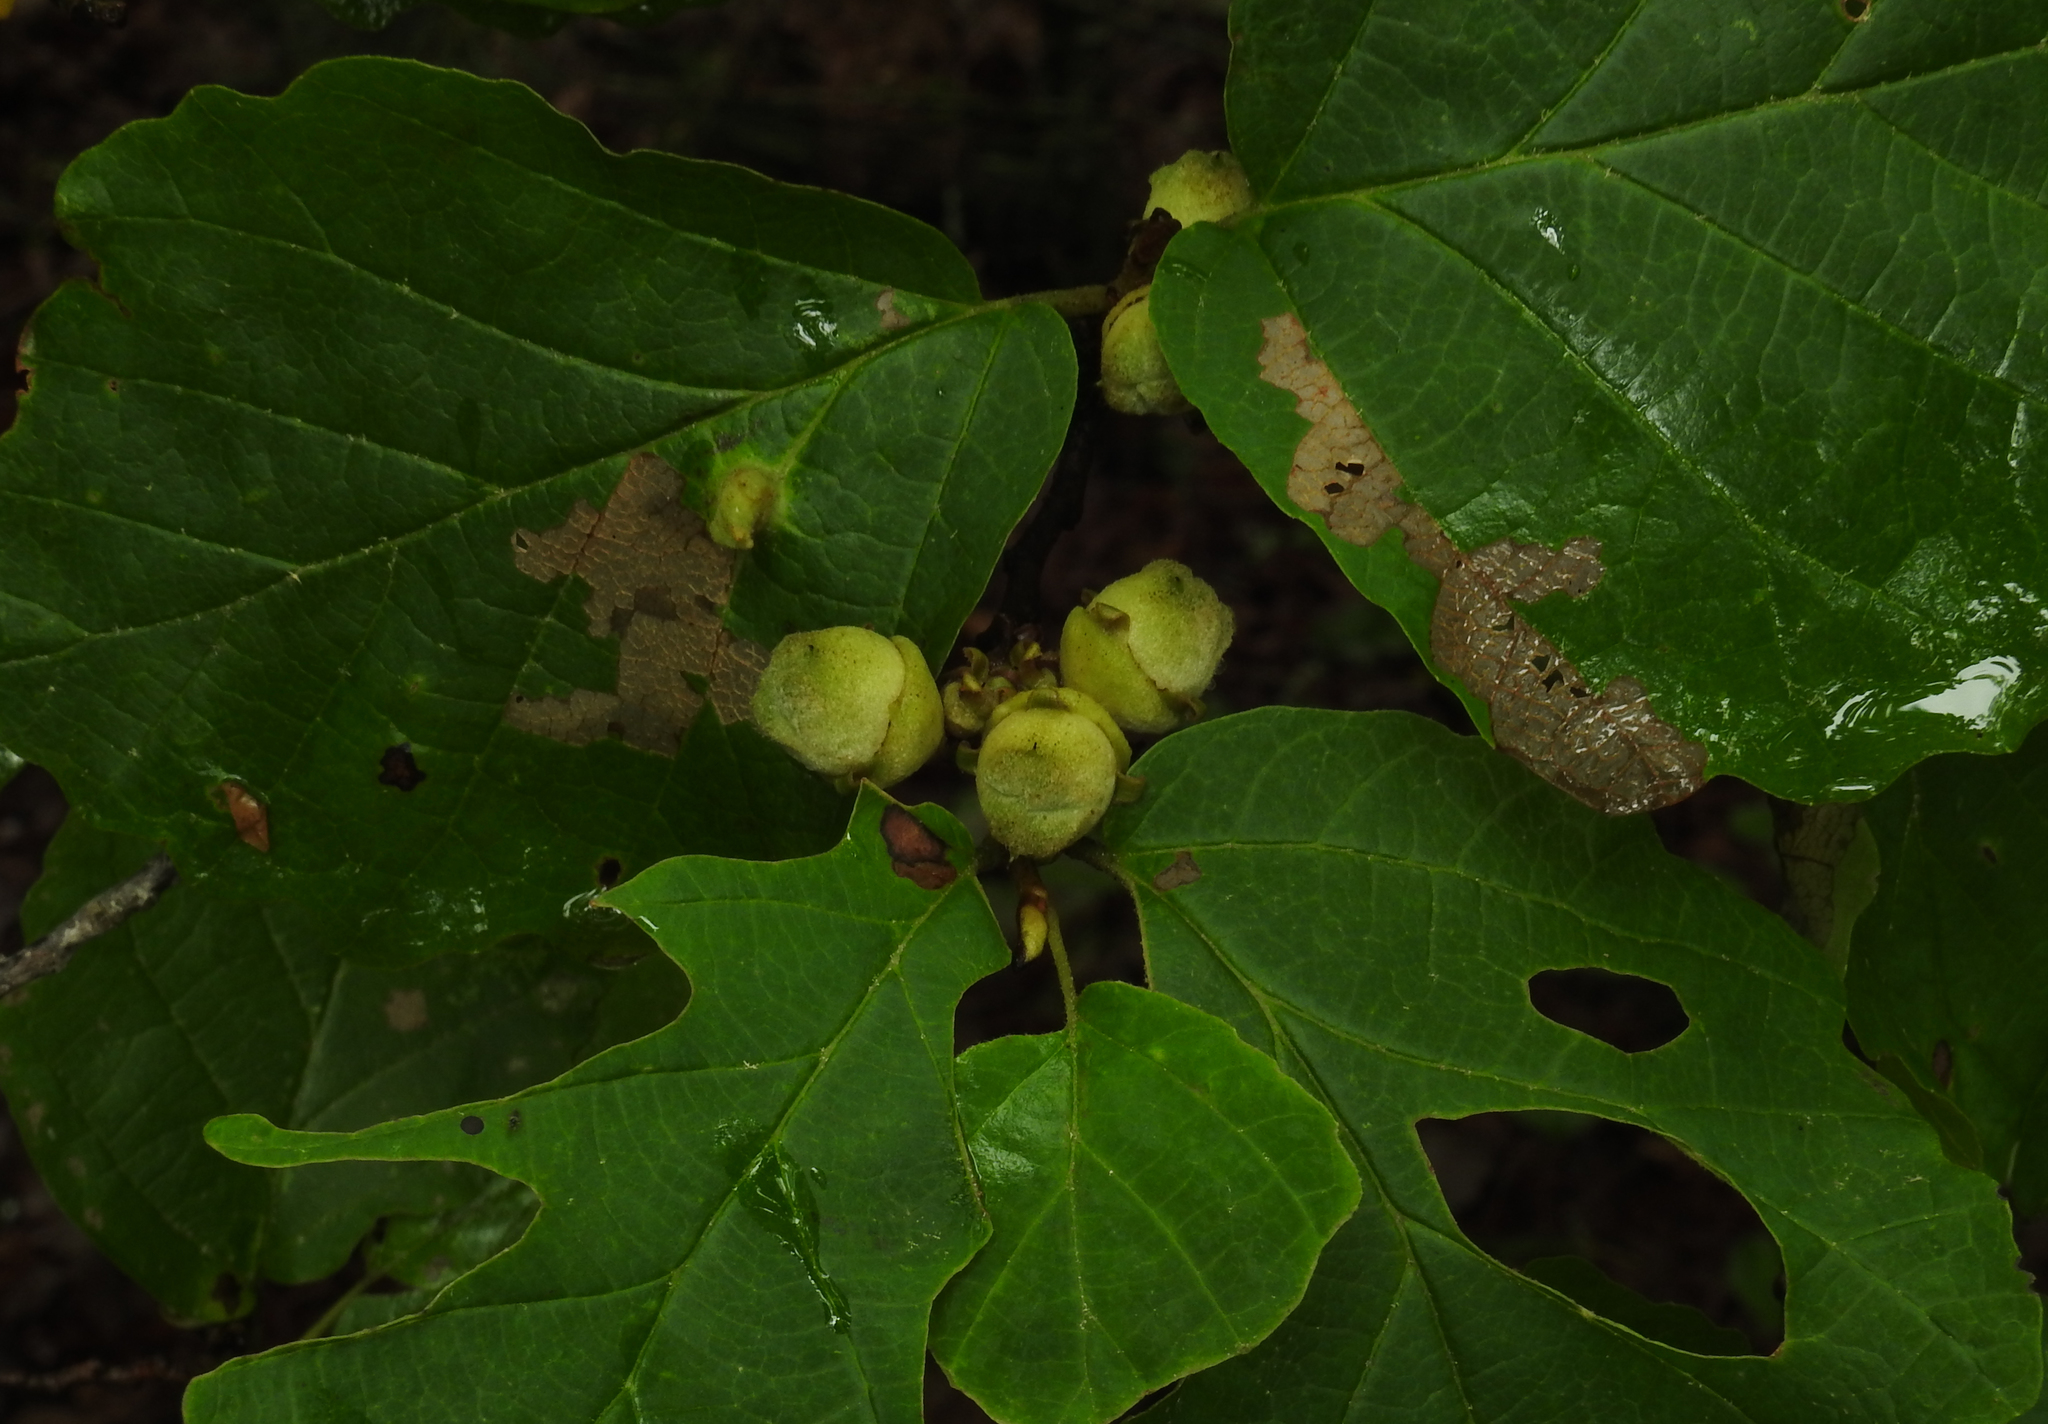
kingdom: Plantae
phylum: Tracheophyta
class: Magnoliopsida
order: Saxifragales
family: Hamamelidaceae
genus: Hamamelis
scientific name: Hamamelis virginiana
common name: Witch-hazel
